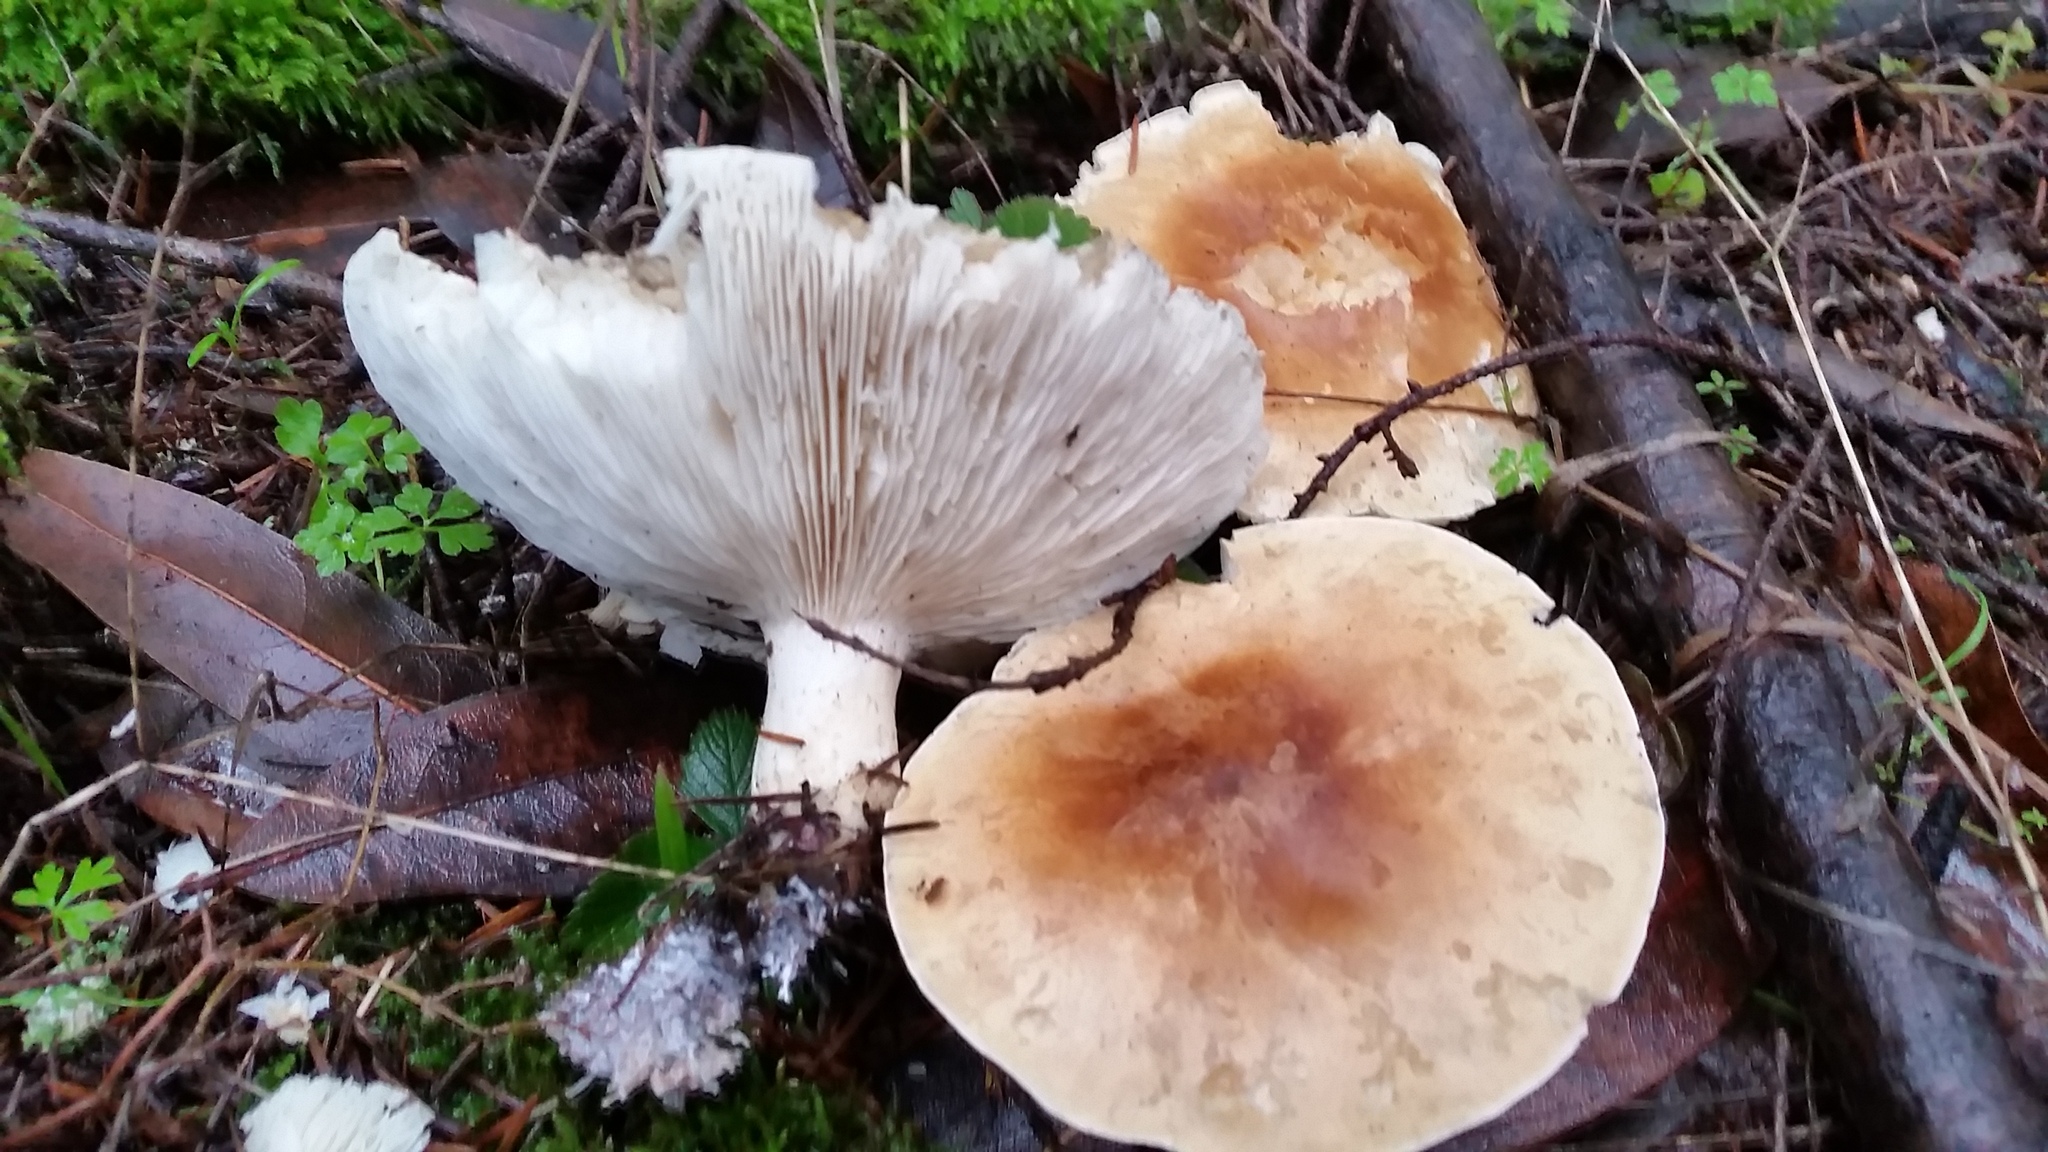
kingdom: Fungi
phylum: Basidiomycota
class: Agaricomycetes
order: Agaricales
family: Tricholomataceae
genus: Leucopaxillus
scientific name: Leucopaxillus gentianeus
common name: Bitter funnel
